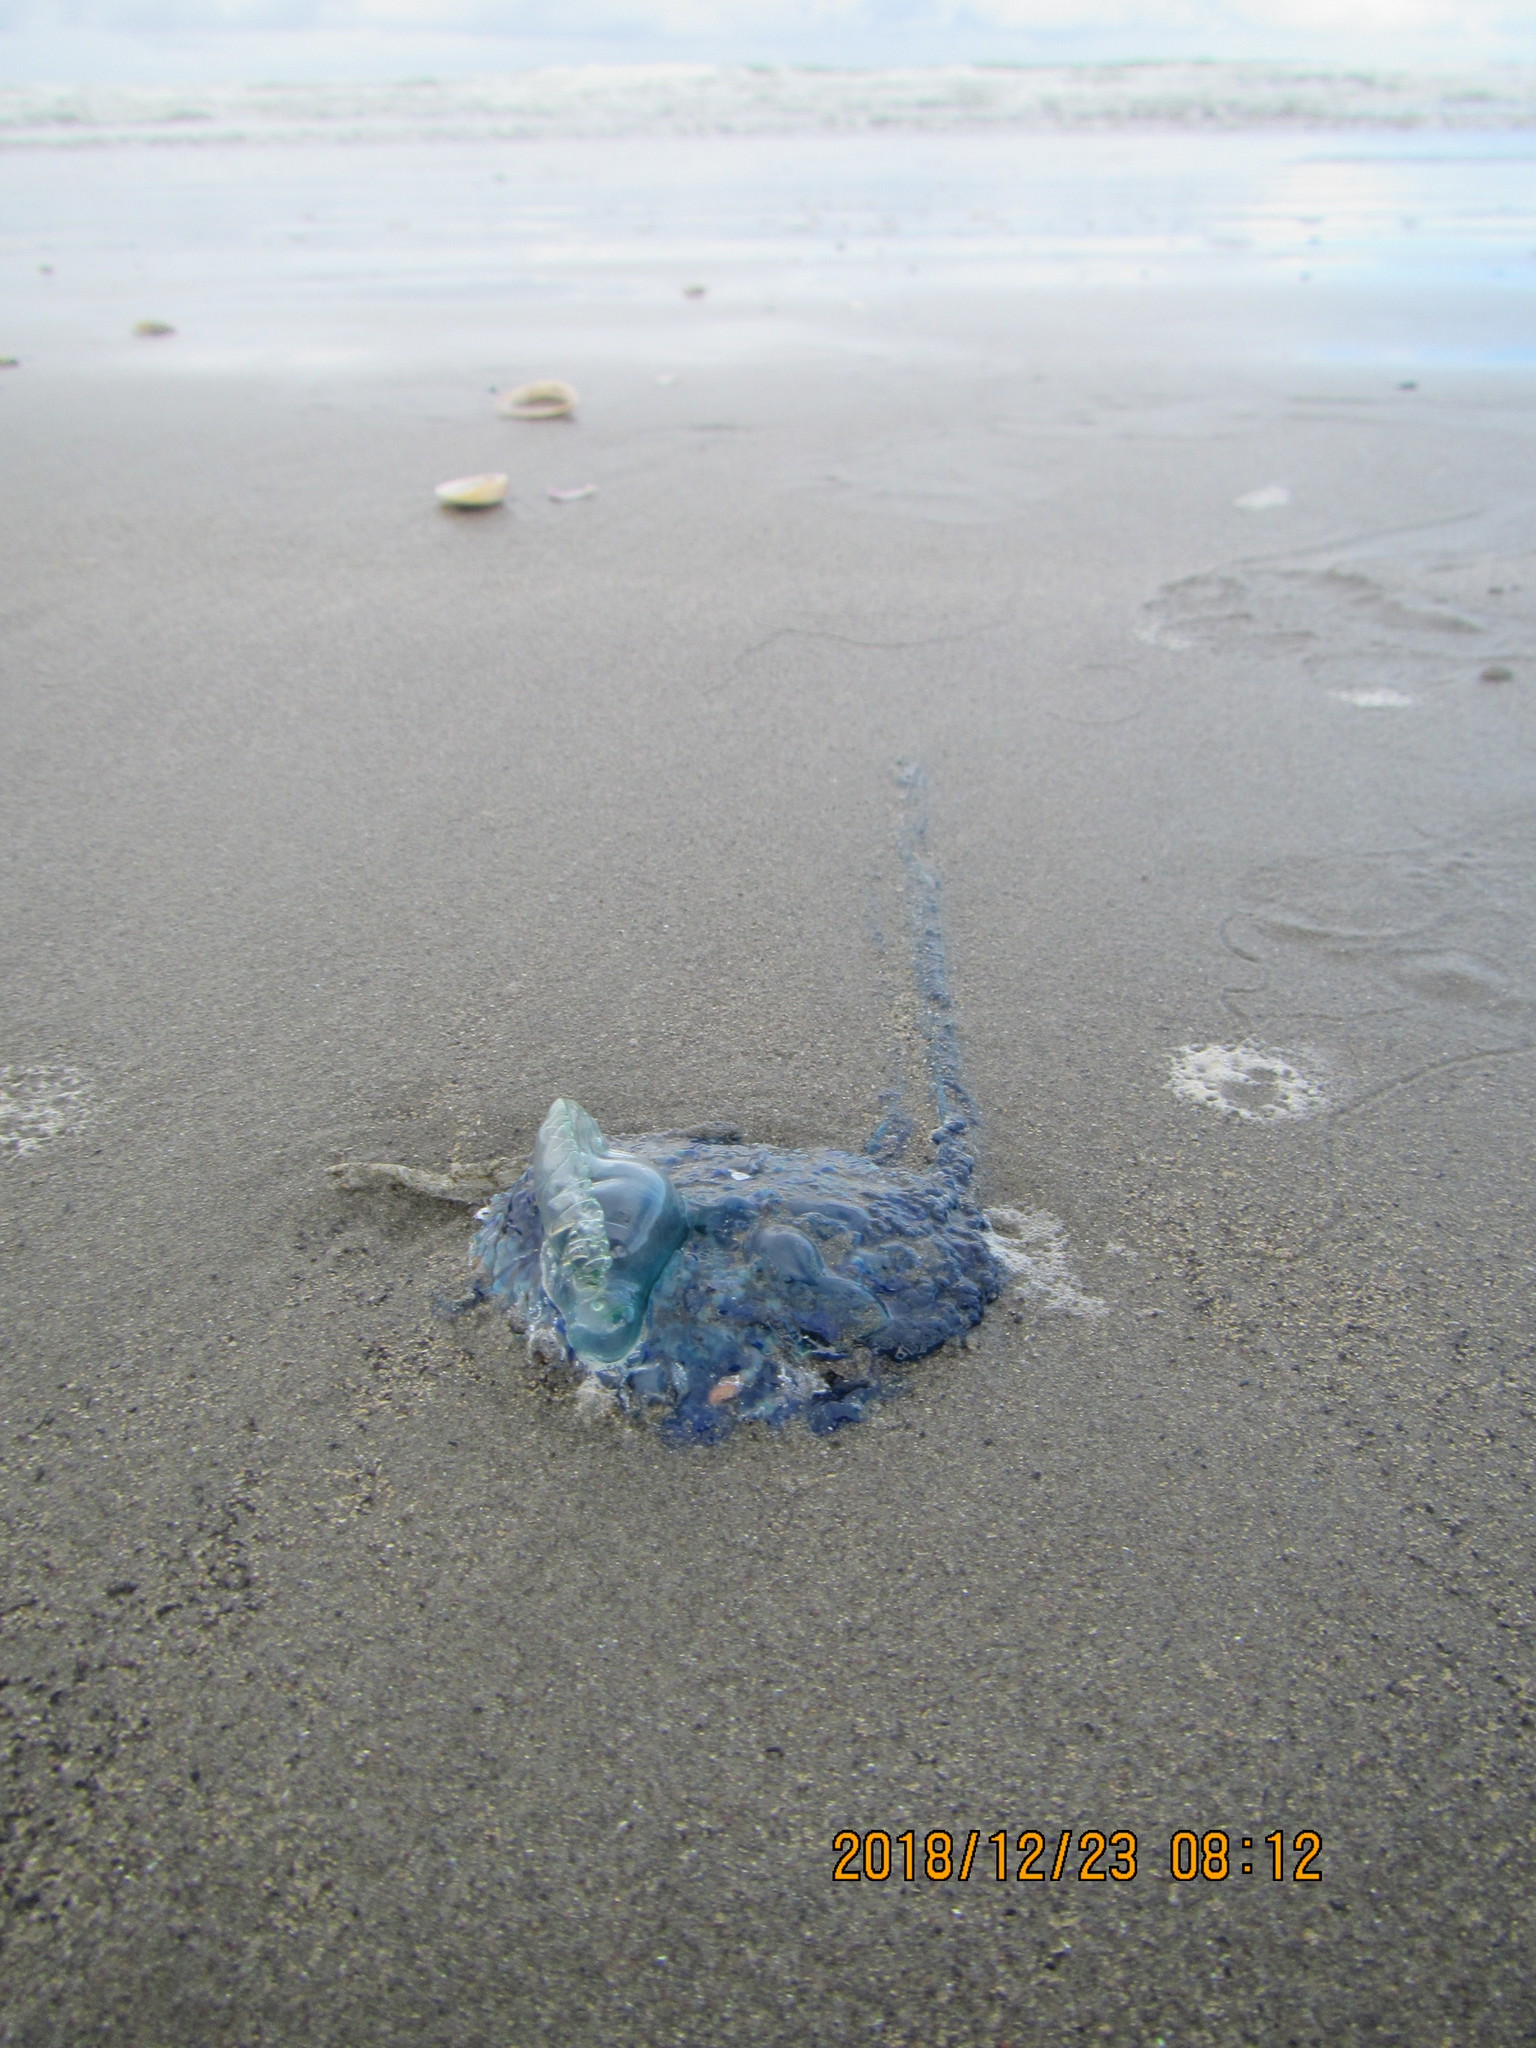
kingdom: Animalia
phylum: Cnidaria
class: Hydrozoa
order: Siphonophorae
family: Physaliidae
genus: Physalia
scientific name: Physalia physalis
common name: Portuguese man-of-war
